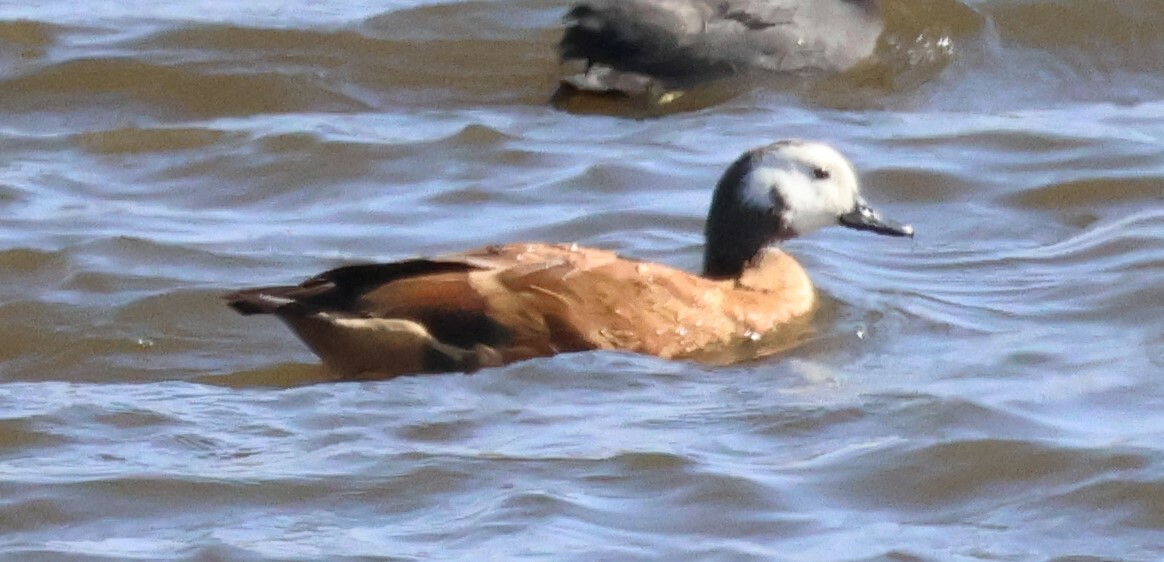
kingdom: Animalia
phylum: Chordata
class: Aves
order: Anseriformes
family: Anatidae
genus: Tadorna
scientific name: Tadorna cana
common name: South african shelduck
